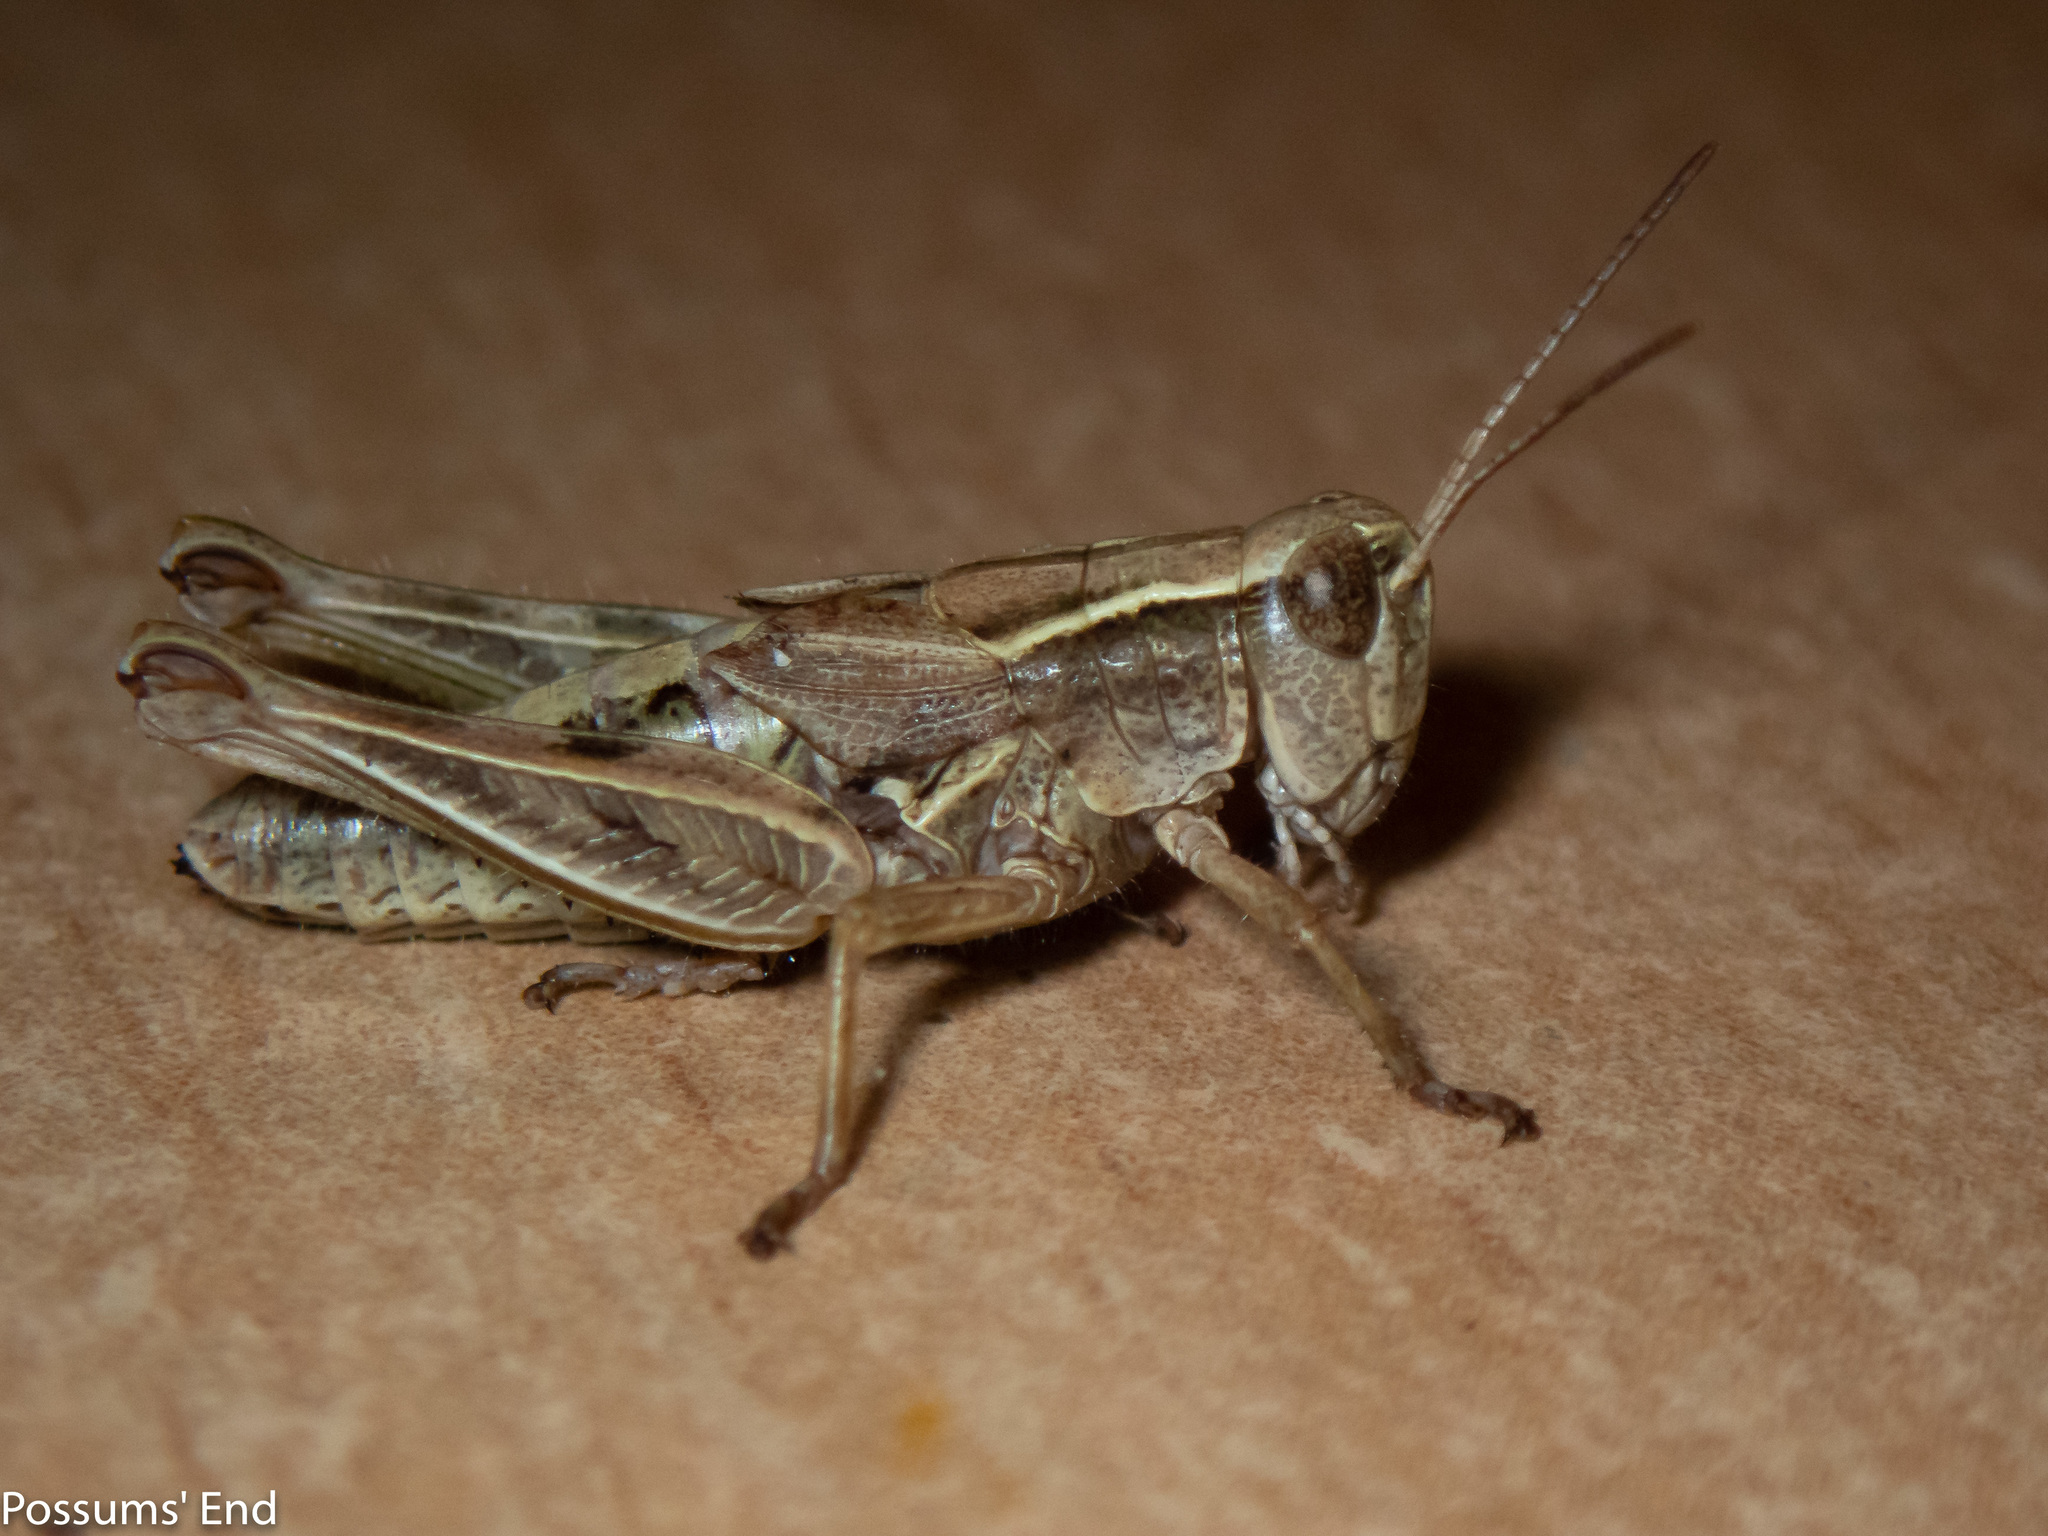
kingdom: Animalia
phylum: Arthropoda
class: Insecta
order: Orthoptera
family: Acrididae
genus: Phaulacridium
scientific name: Phaulacridium marginale
